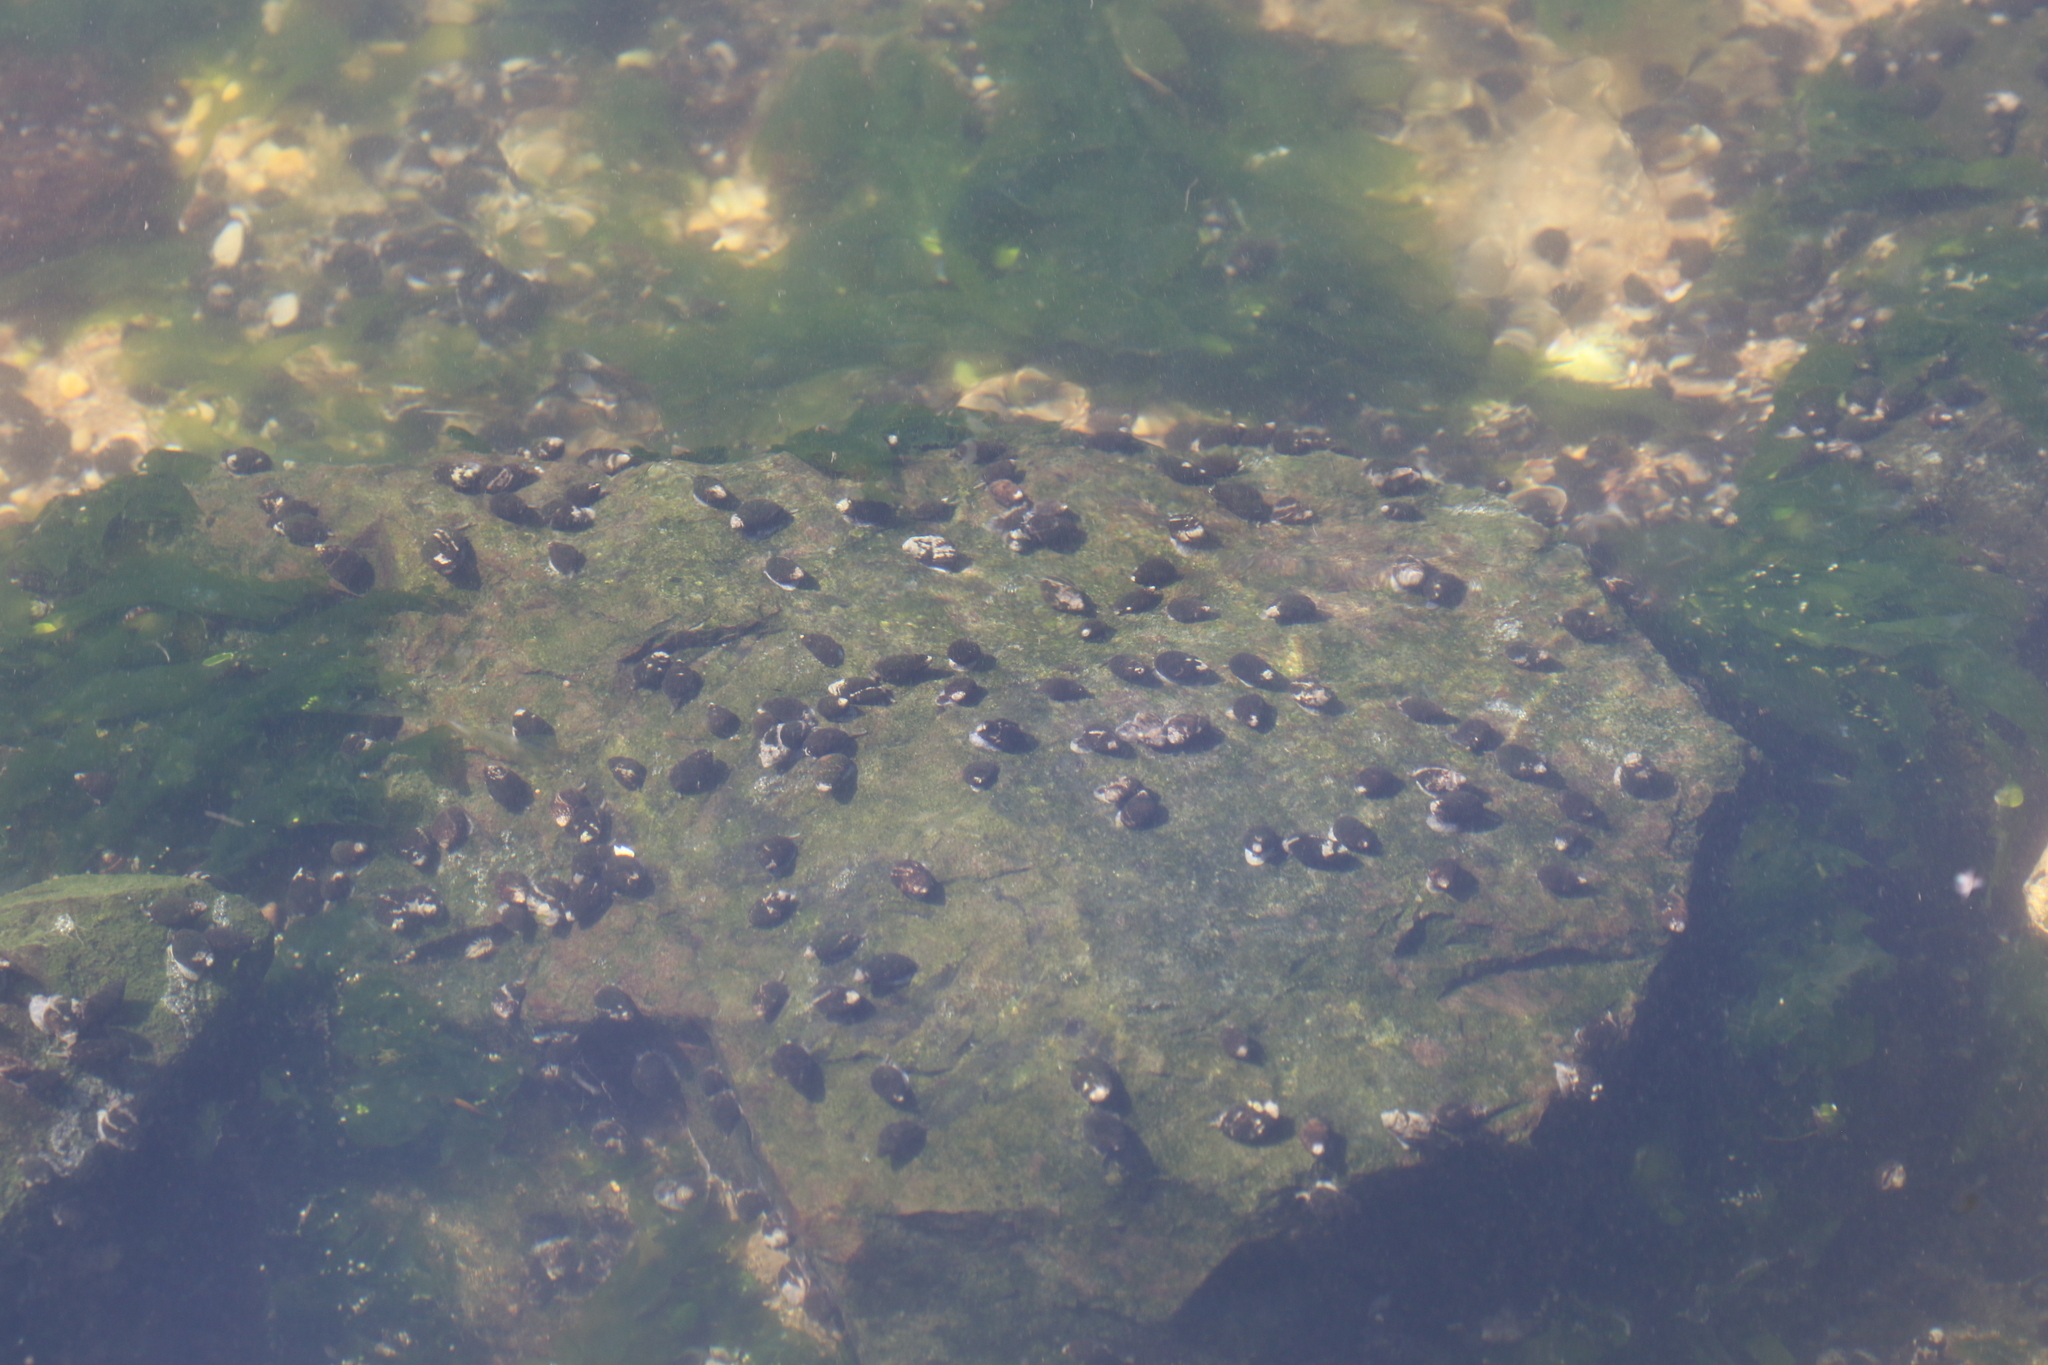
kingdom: Animalia
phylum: Mollusca
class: Gastropoda
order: Neogastropoda
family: Nassariidae
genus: Ilyanassa
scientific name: Ilyanassa obsoleta
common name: Eastern mudsnail
